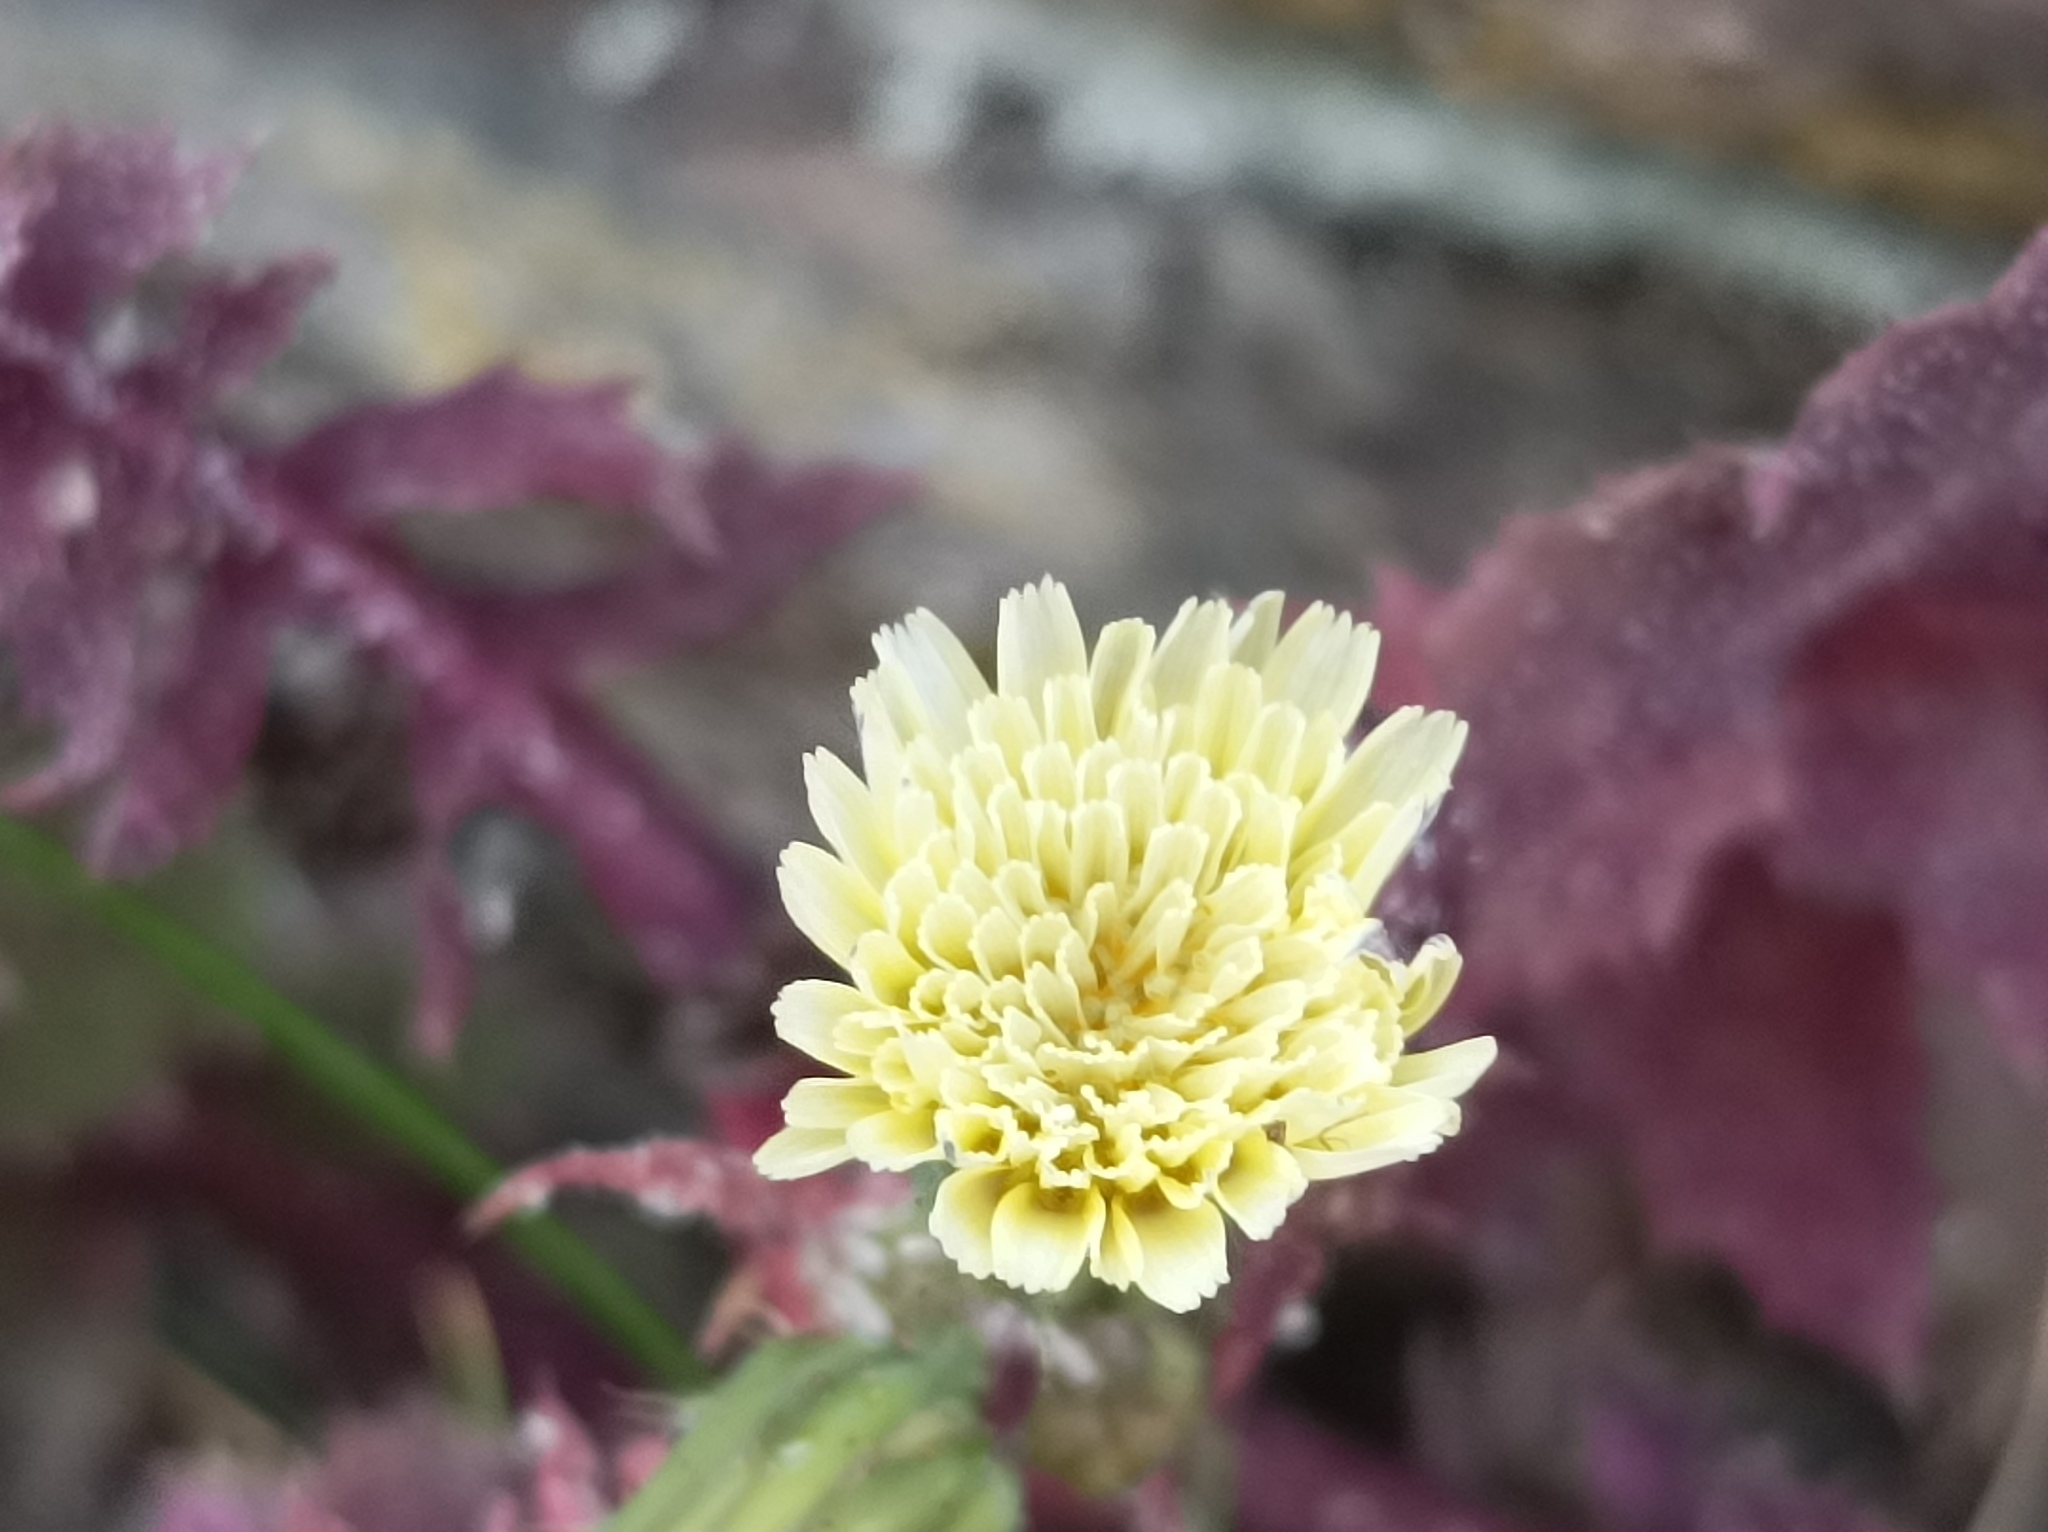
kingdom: Plantae
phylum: Tracheophyta
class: Magnoliopsida
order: Asterales
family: Asteraceae
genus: Sonchus
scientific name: Sonchus oleraceus
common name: Common sowthistle
